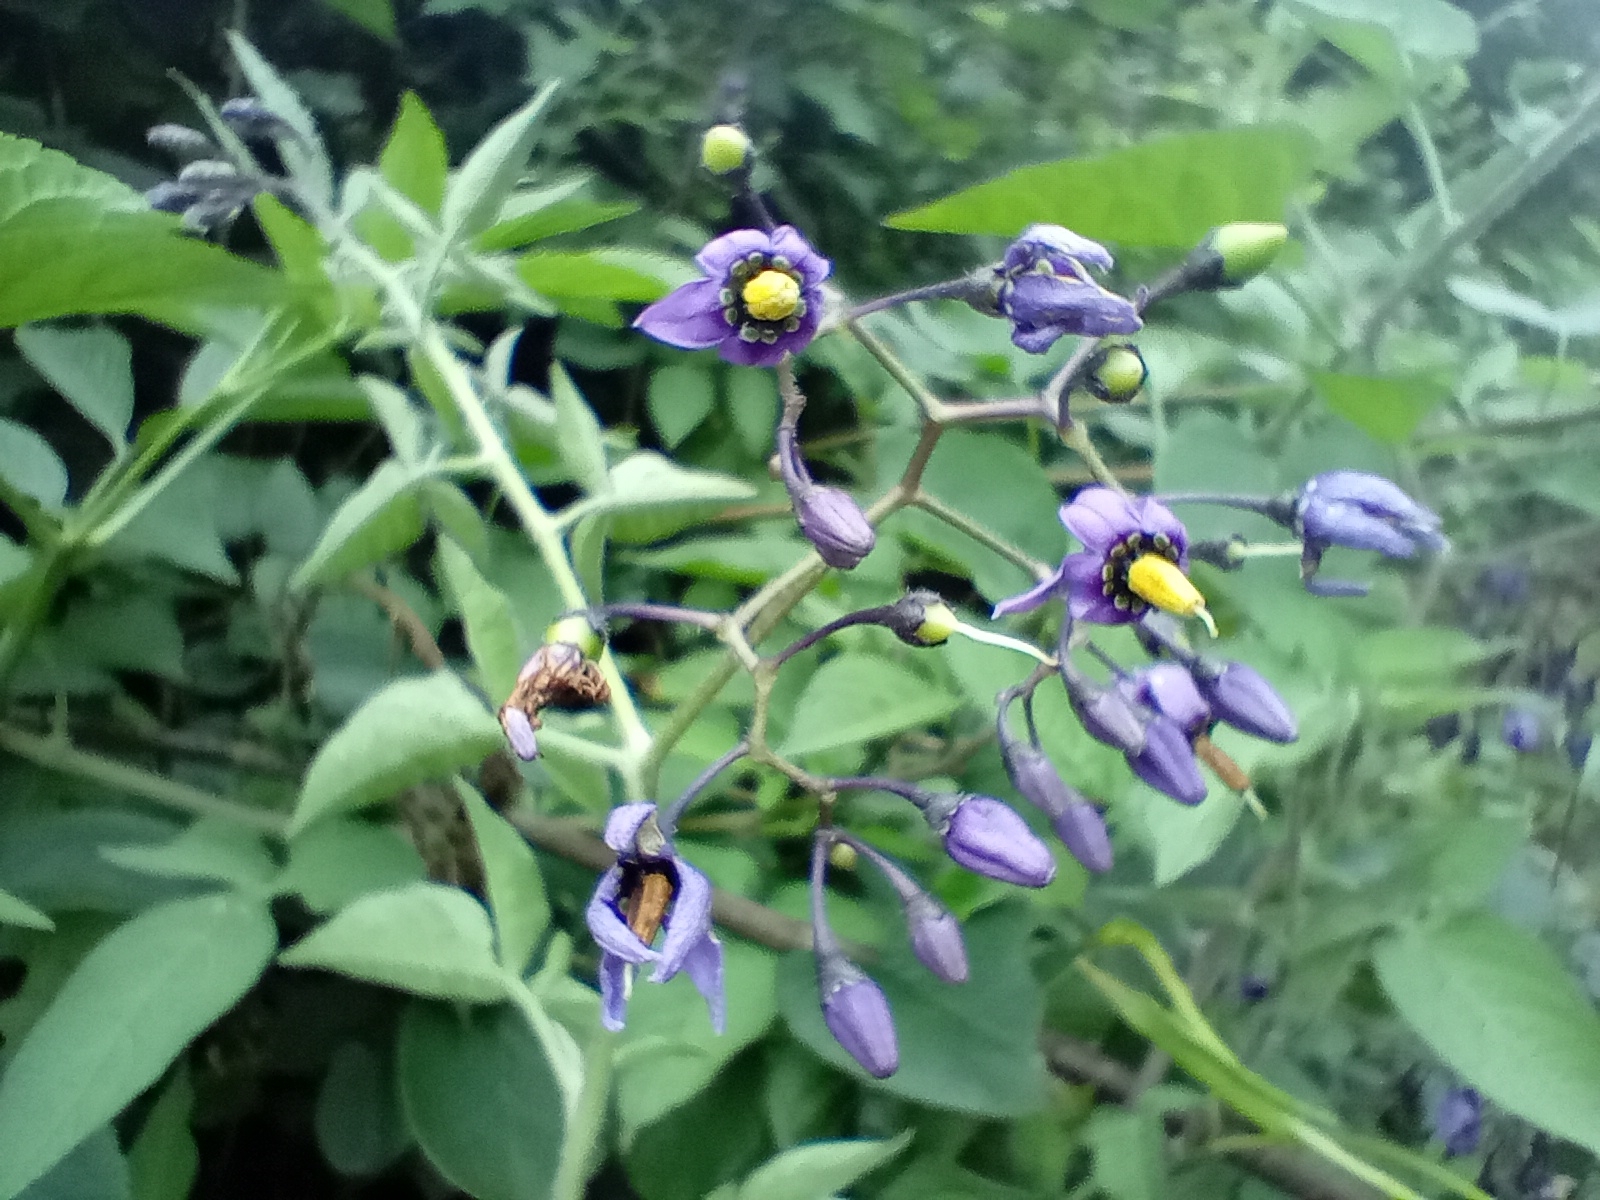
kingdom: Plantae
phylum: Tracheophyta
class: Magnoliopsida
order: Solanales
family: Solanaceae
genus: Solanum
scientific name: Solanum dulcamara
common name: Climbing nightshade
